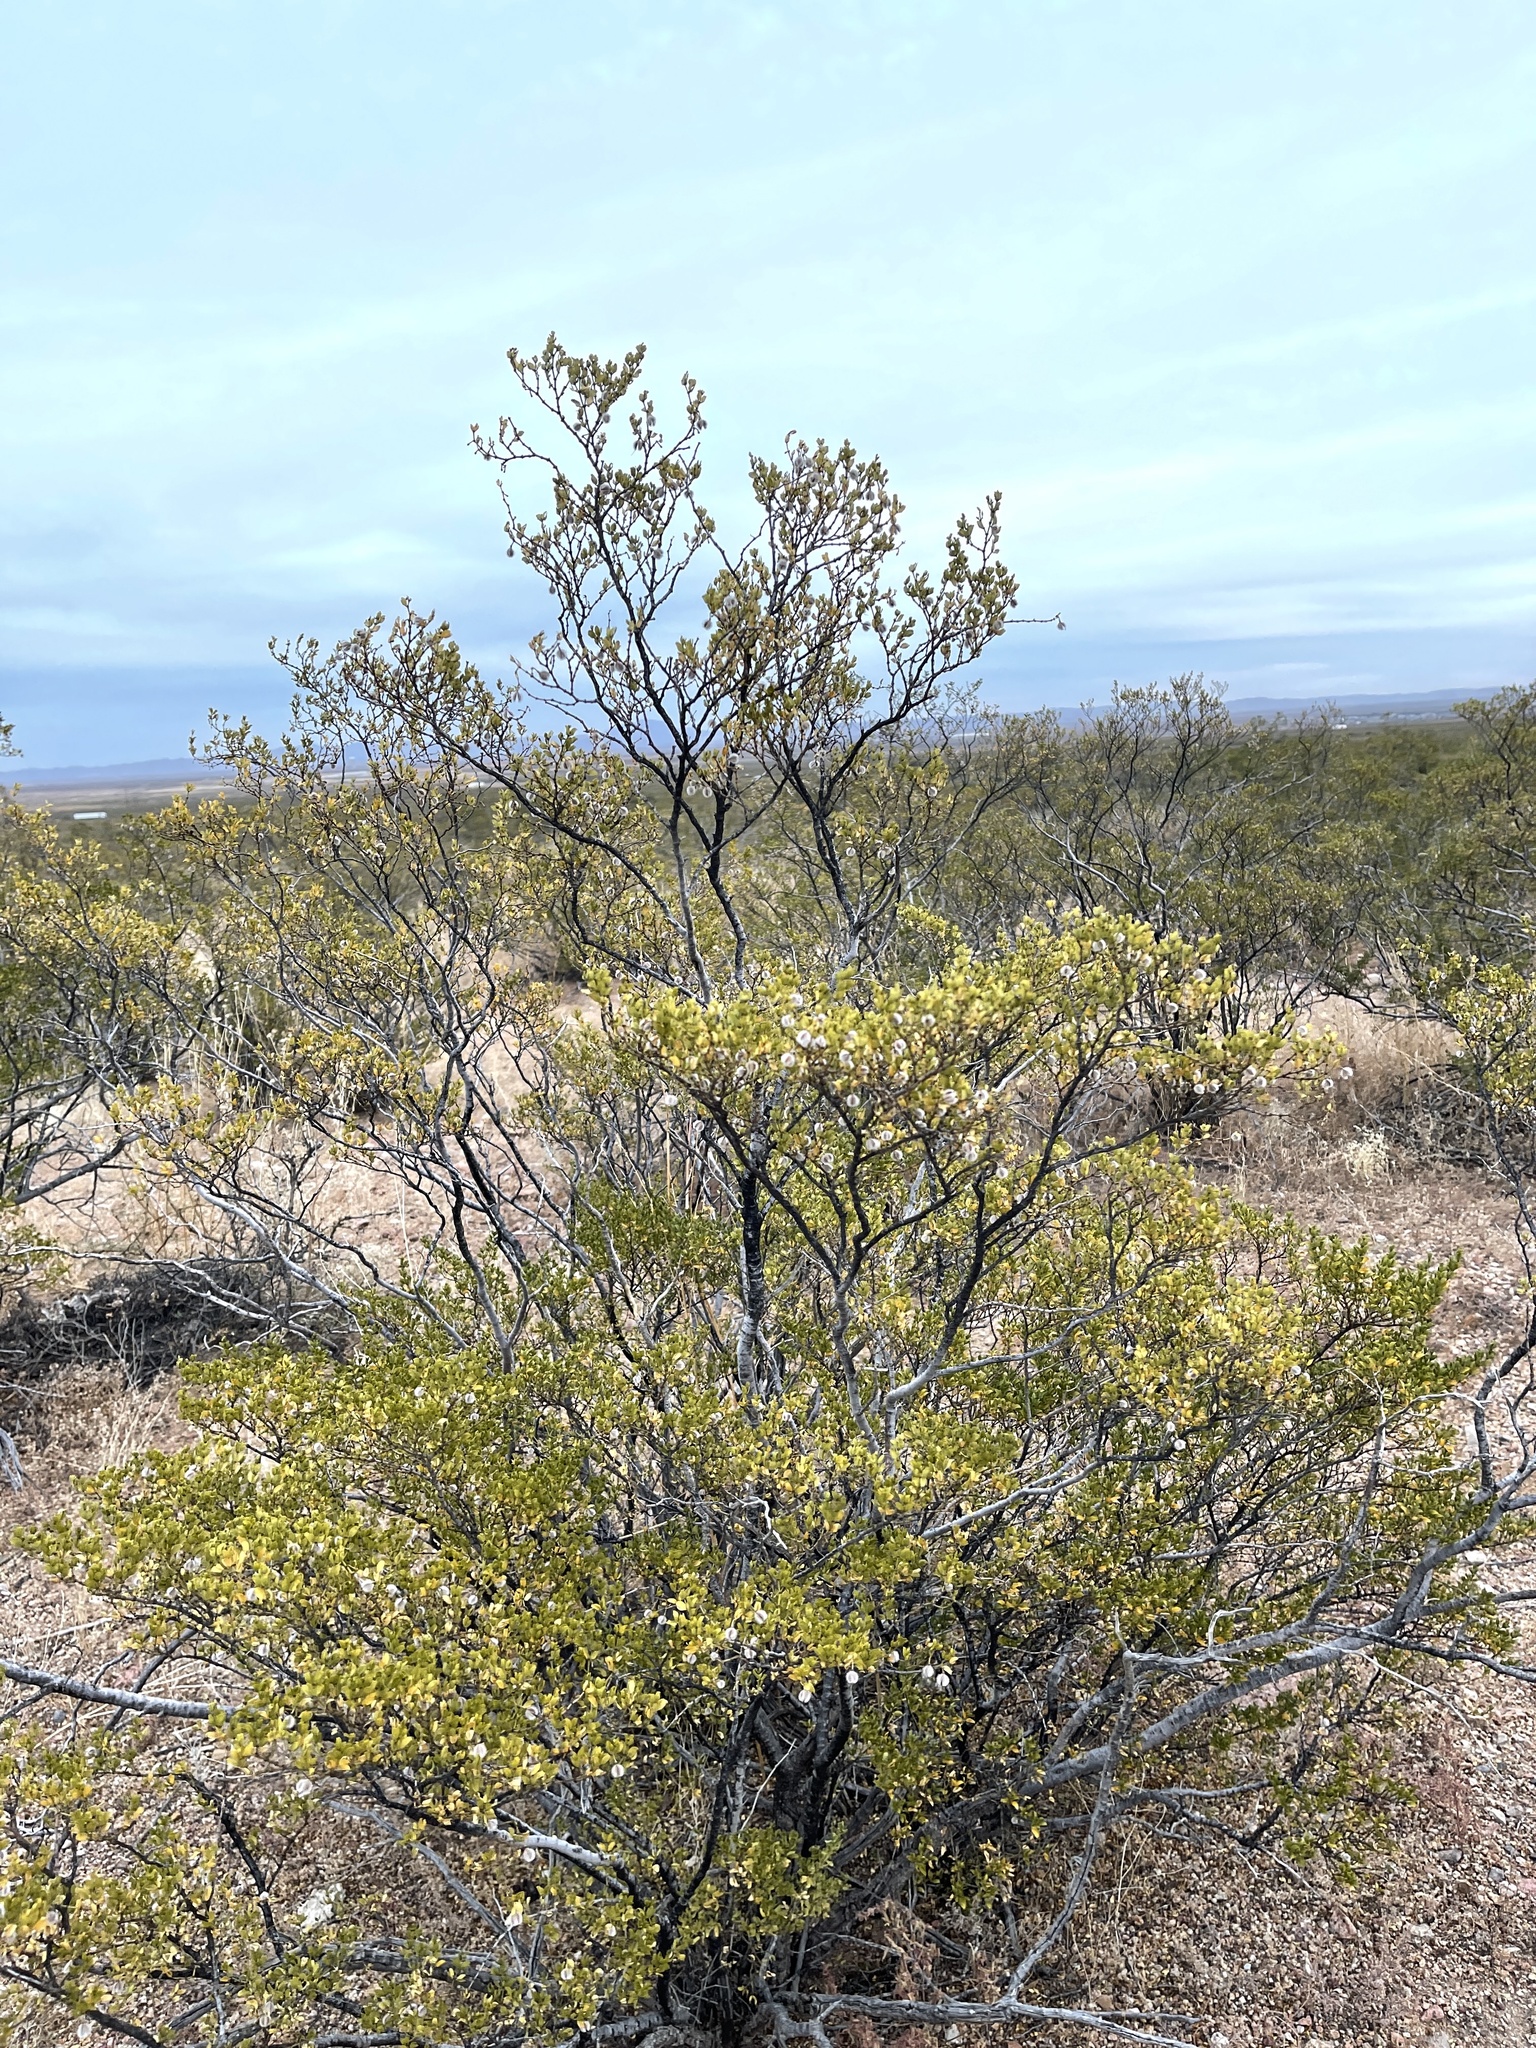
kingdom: Plantae
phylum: Tracheophyta
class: Magnoliopsida
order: Zygophyllales
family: Zygophyllaceae
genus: Larrea
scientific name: Larrea tridentata
